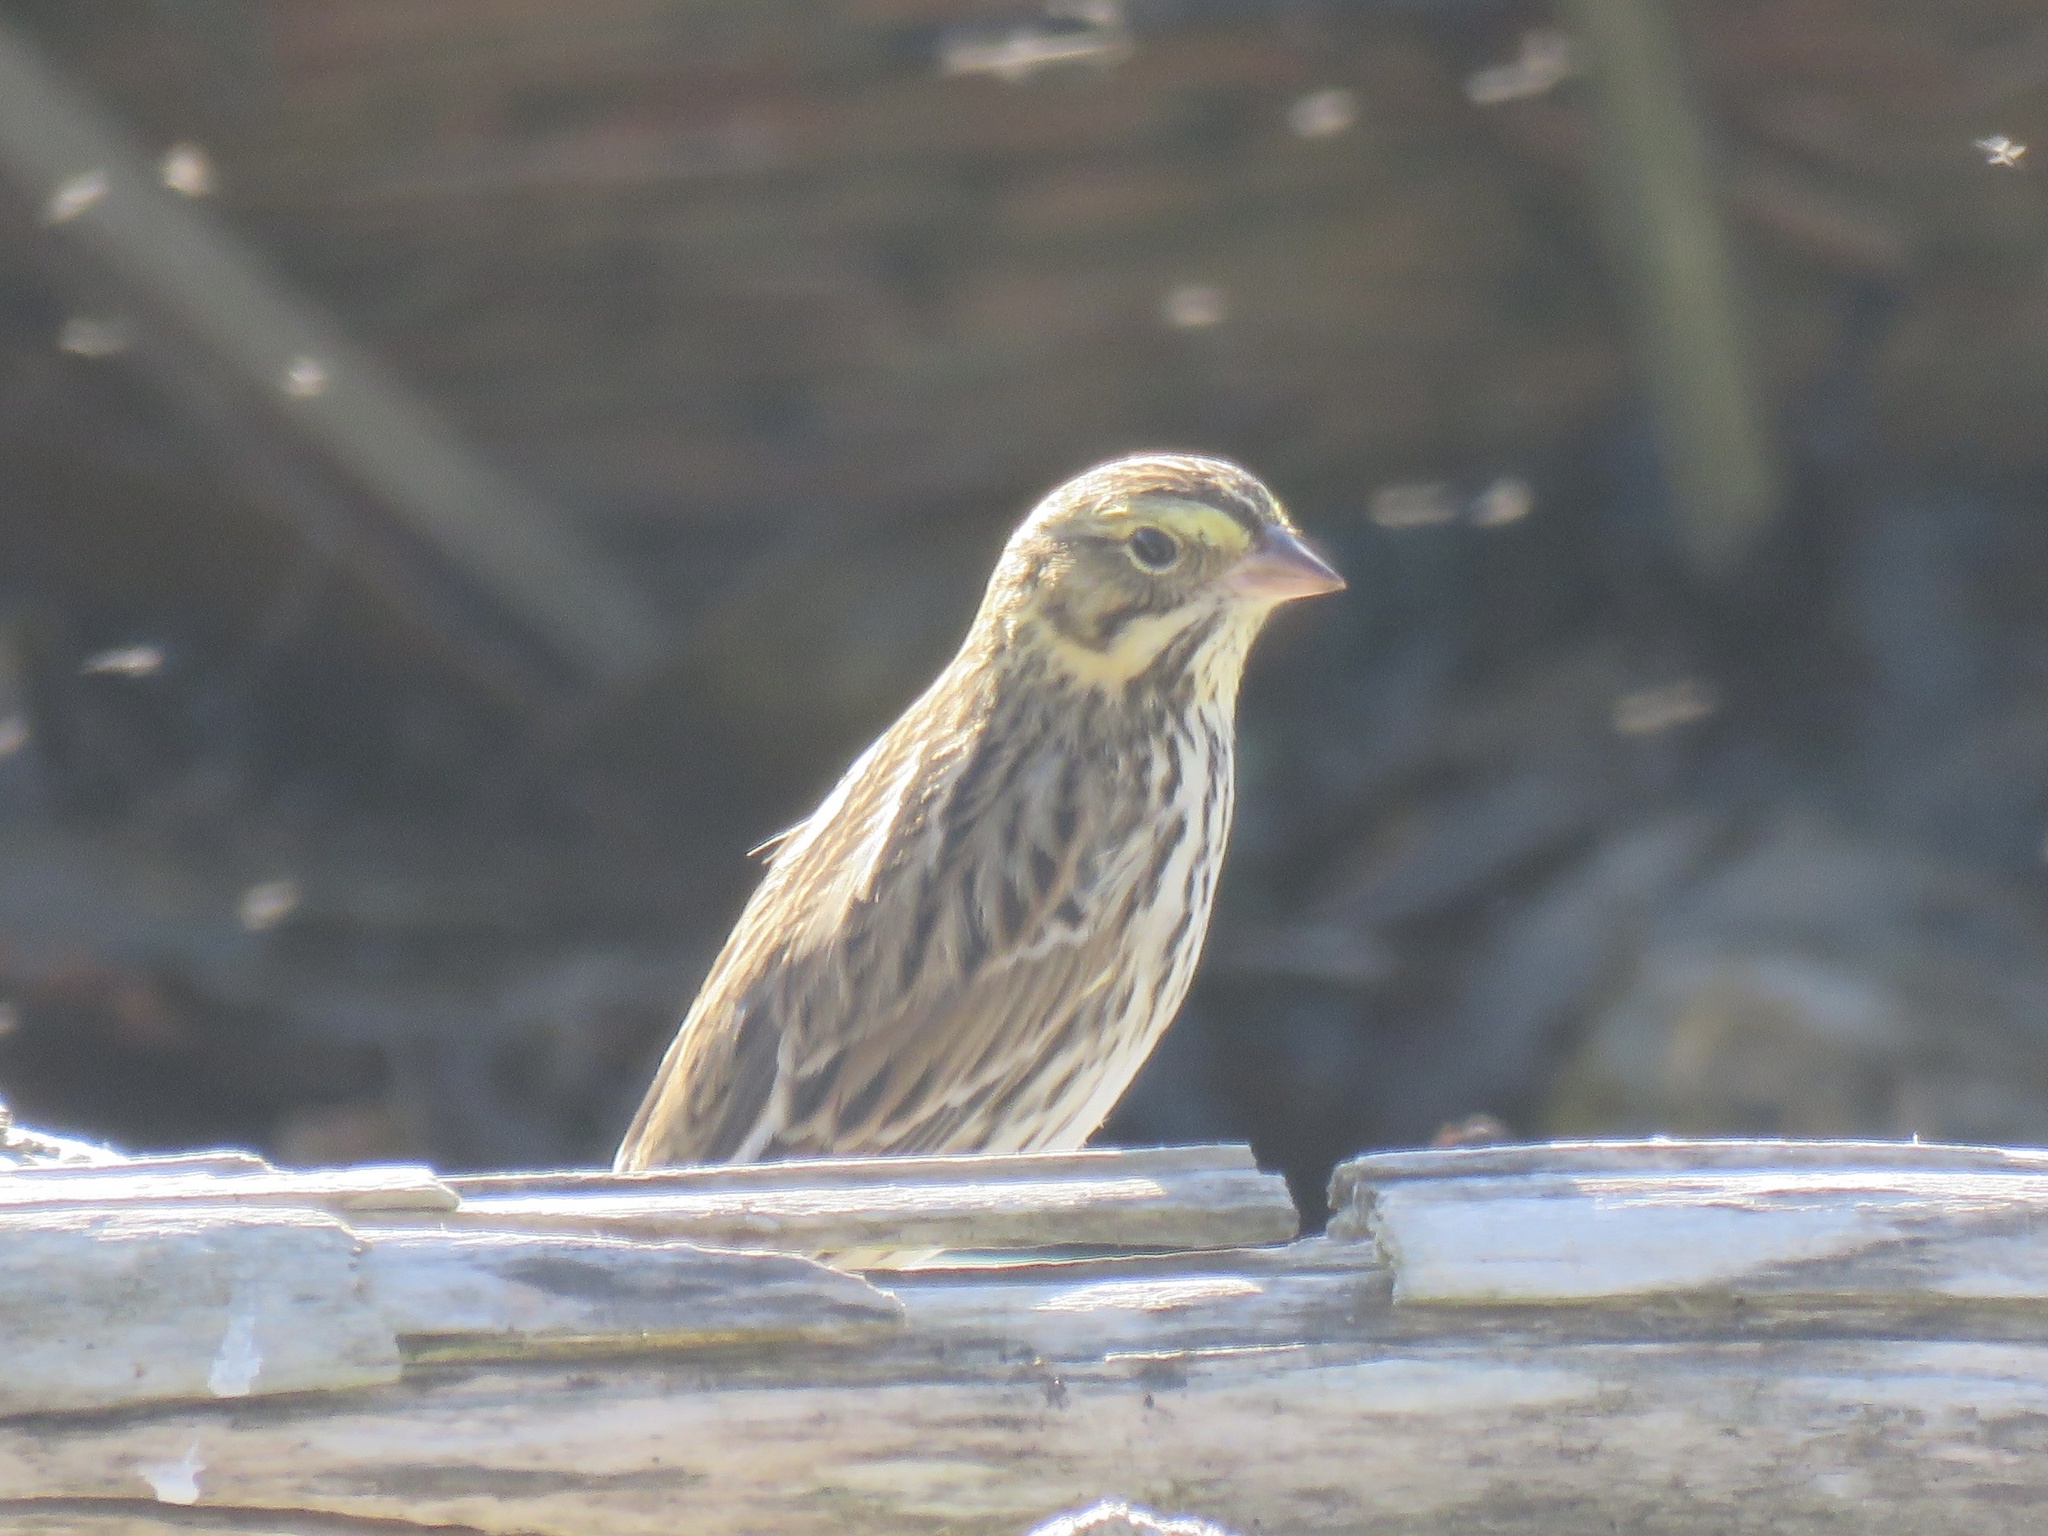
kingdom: Animalia
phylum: Chordata
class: Aves
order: Passeriformes
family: Passerellidae
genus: Passerculus
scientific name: Passerculus sandwichensis
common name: Savannah sparrow
